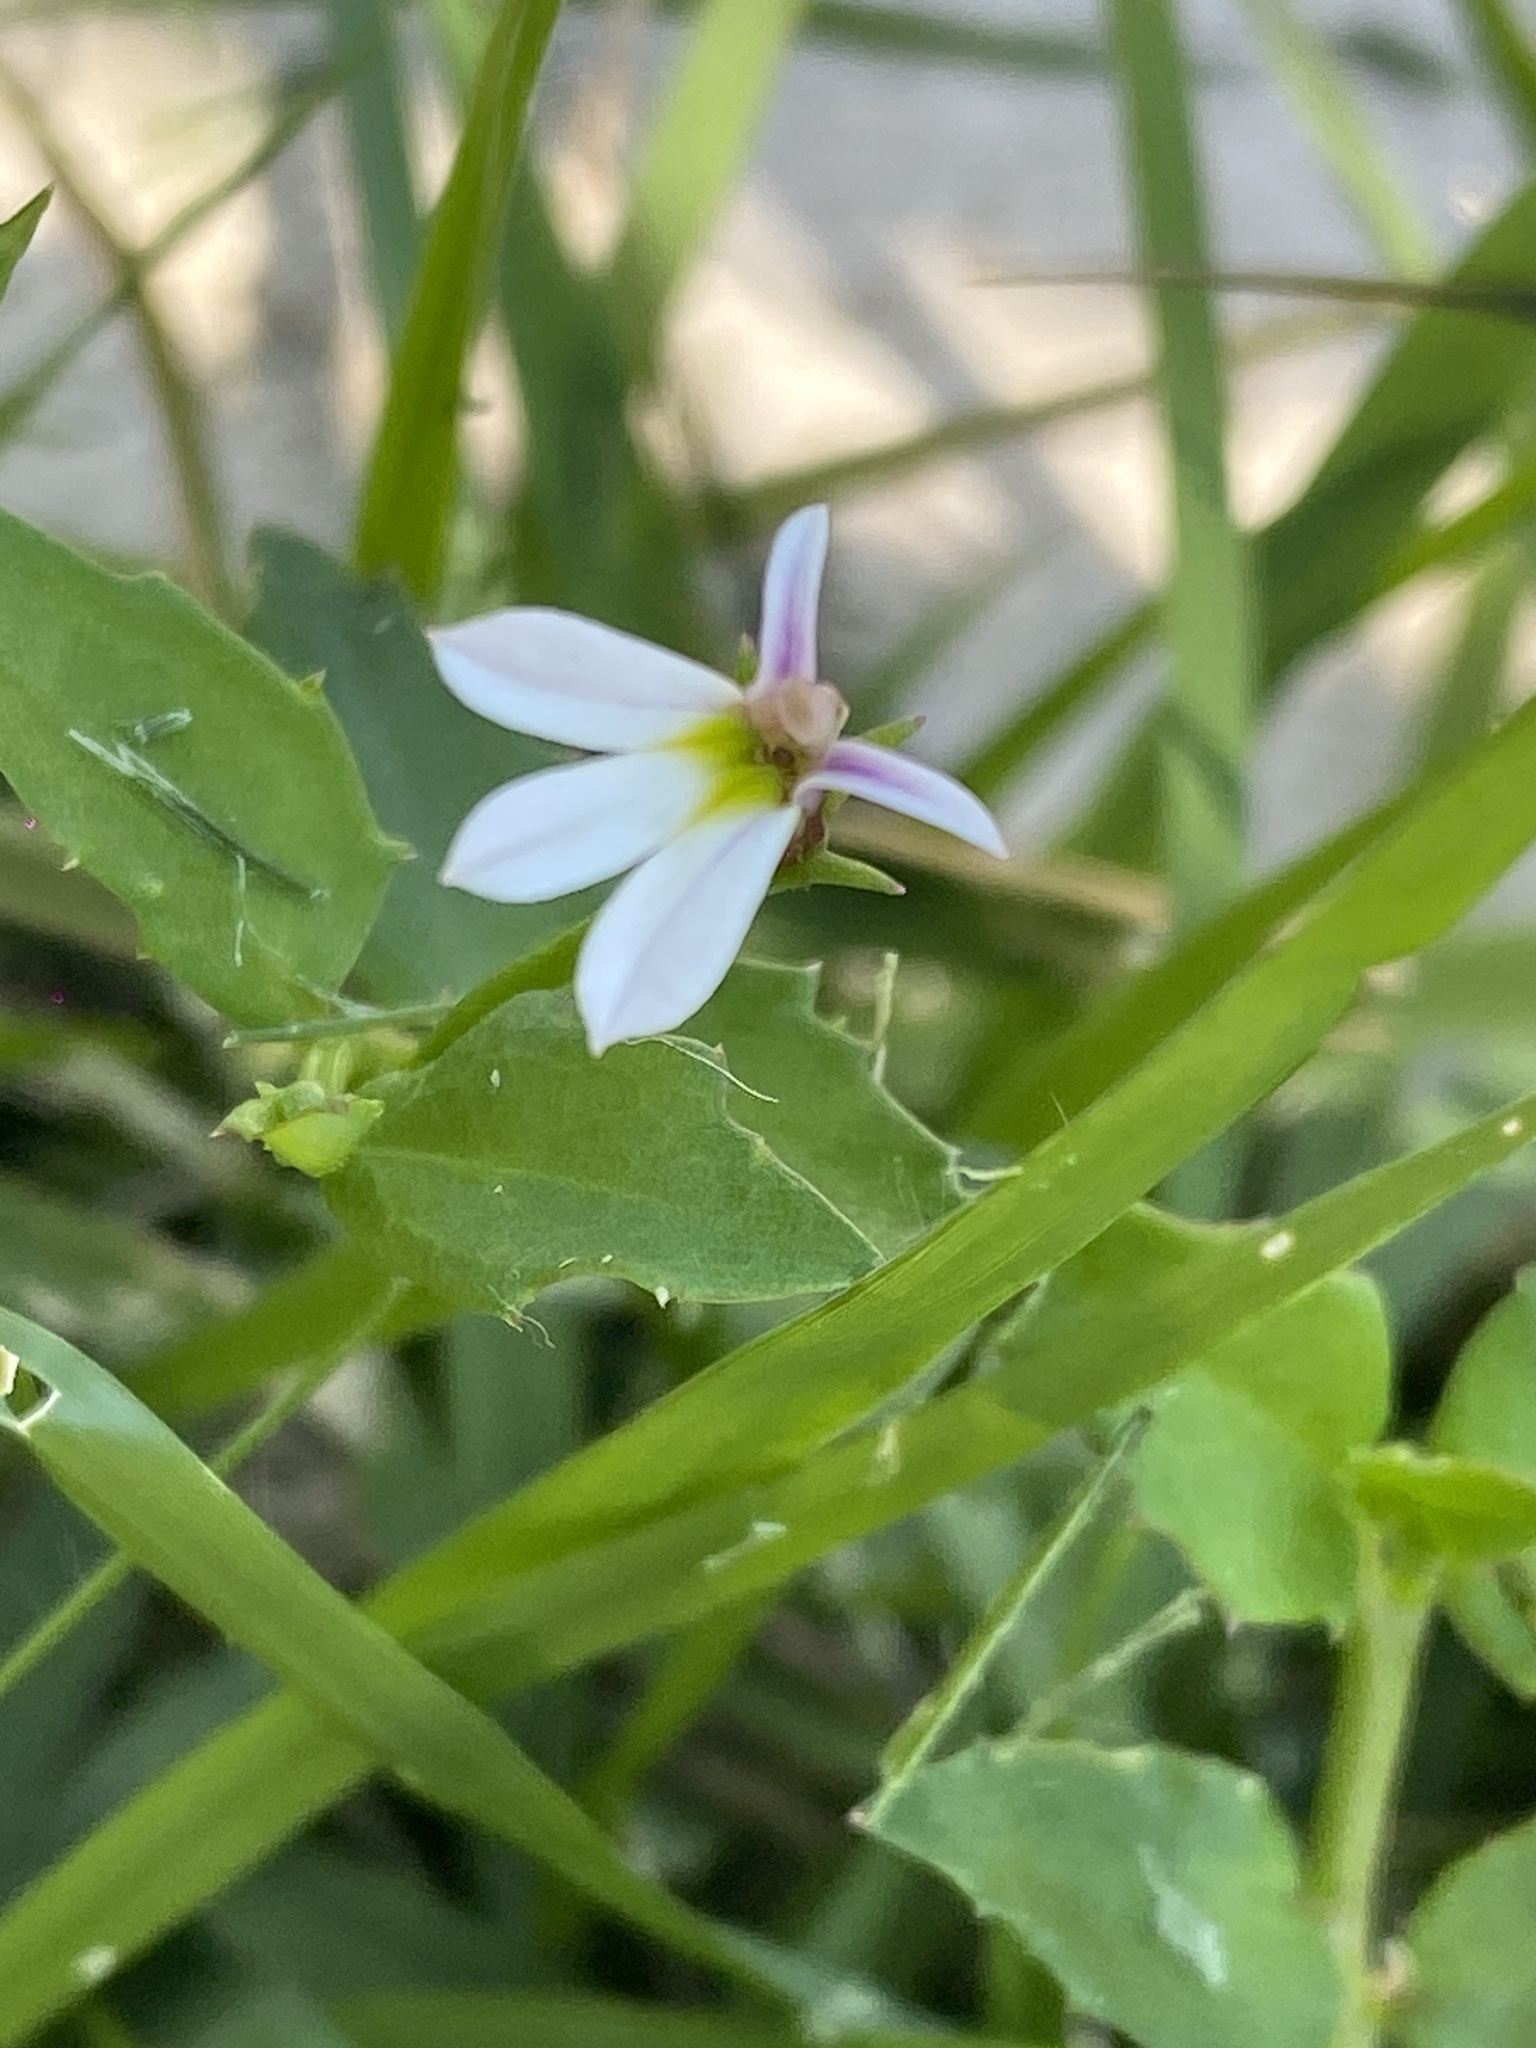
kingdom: Plantae
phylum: Tracheophyta
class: Magnoliopsida
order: Asterales
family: Campanulaceae
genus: Lobelia
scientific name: Lobelia purpurascens
